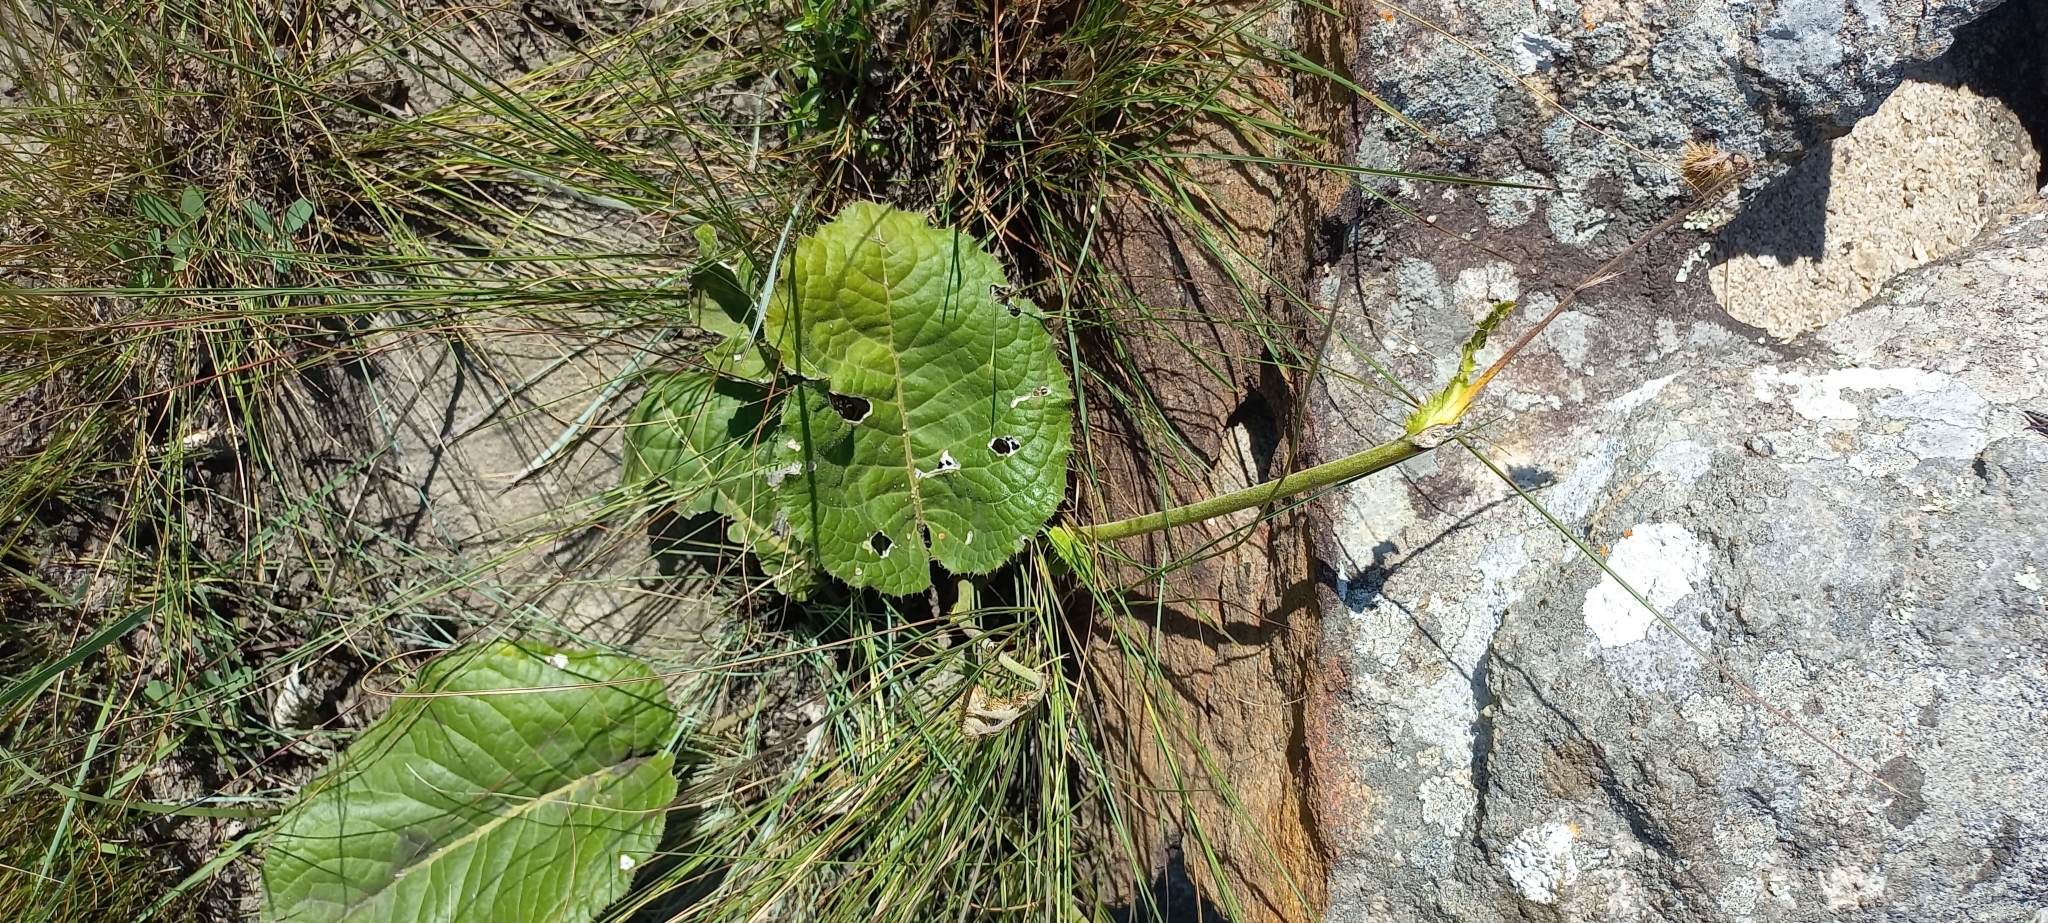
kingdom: Plantae
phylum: Tracheophyta
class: Magnoliopsida
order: Asterales
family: Asteraceae
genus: Berkheya
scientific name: Berkheya speciosa
